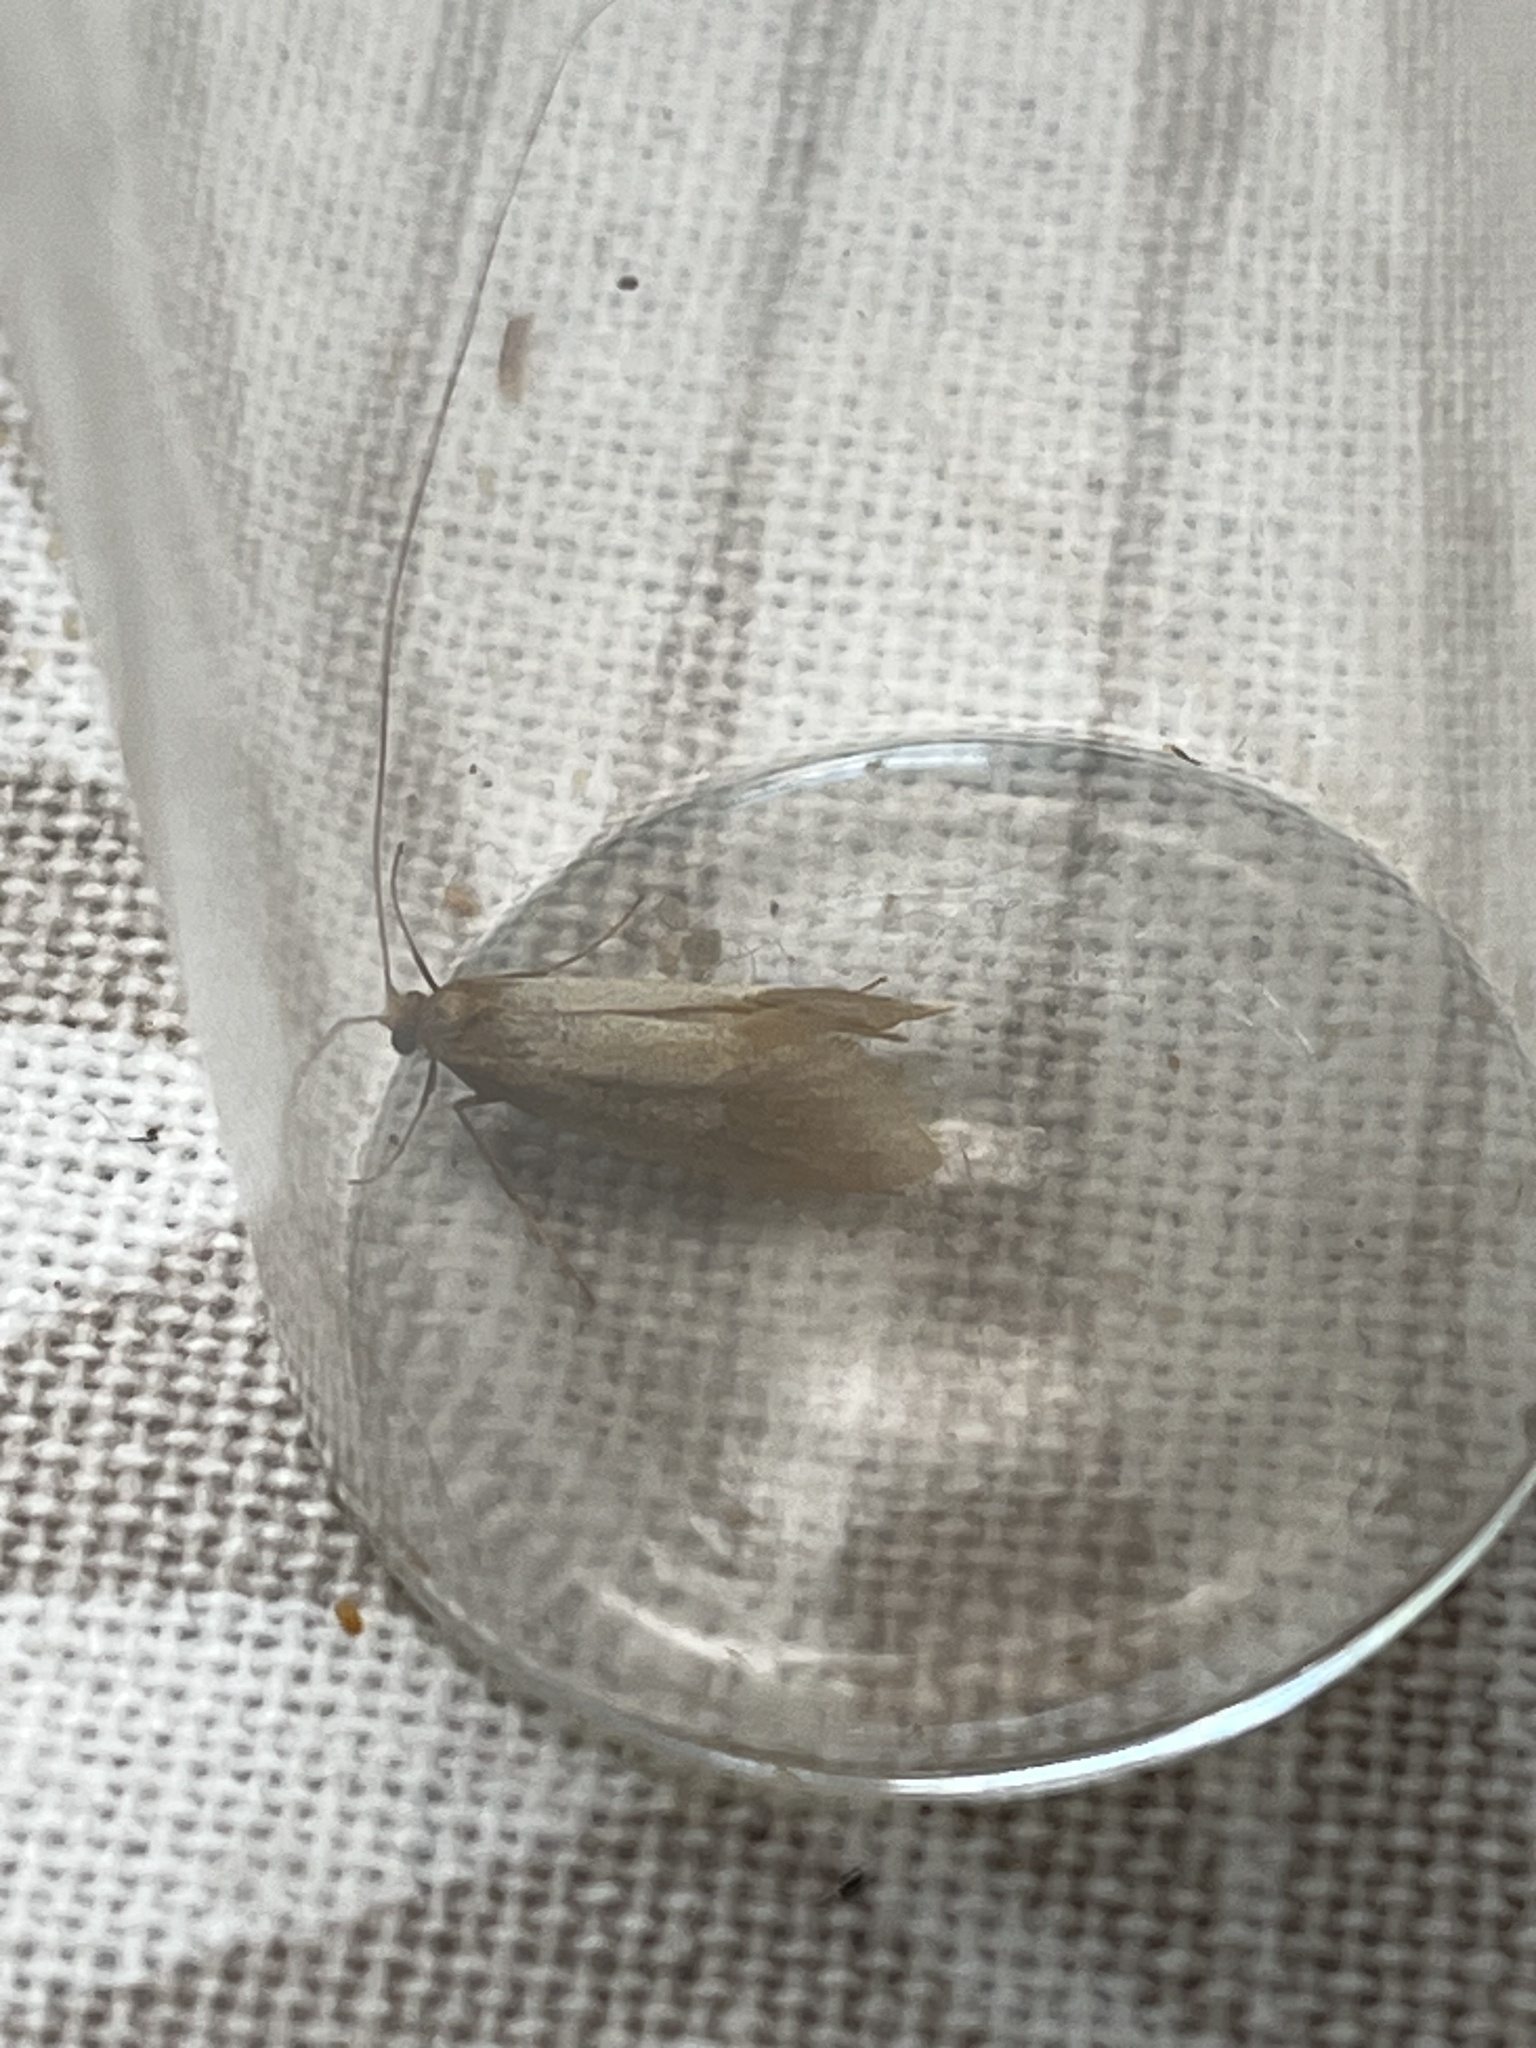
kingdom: Animalia
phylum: Arthropoda
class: Insecta
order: Lepidoptera
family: Adelidae
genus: Nematopogon
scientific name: Nematopogon swammerdamella
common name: Large long-horn
